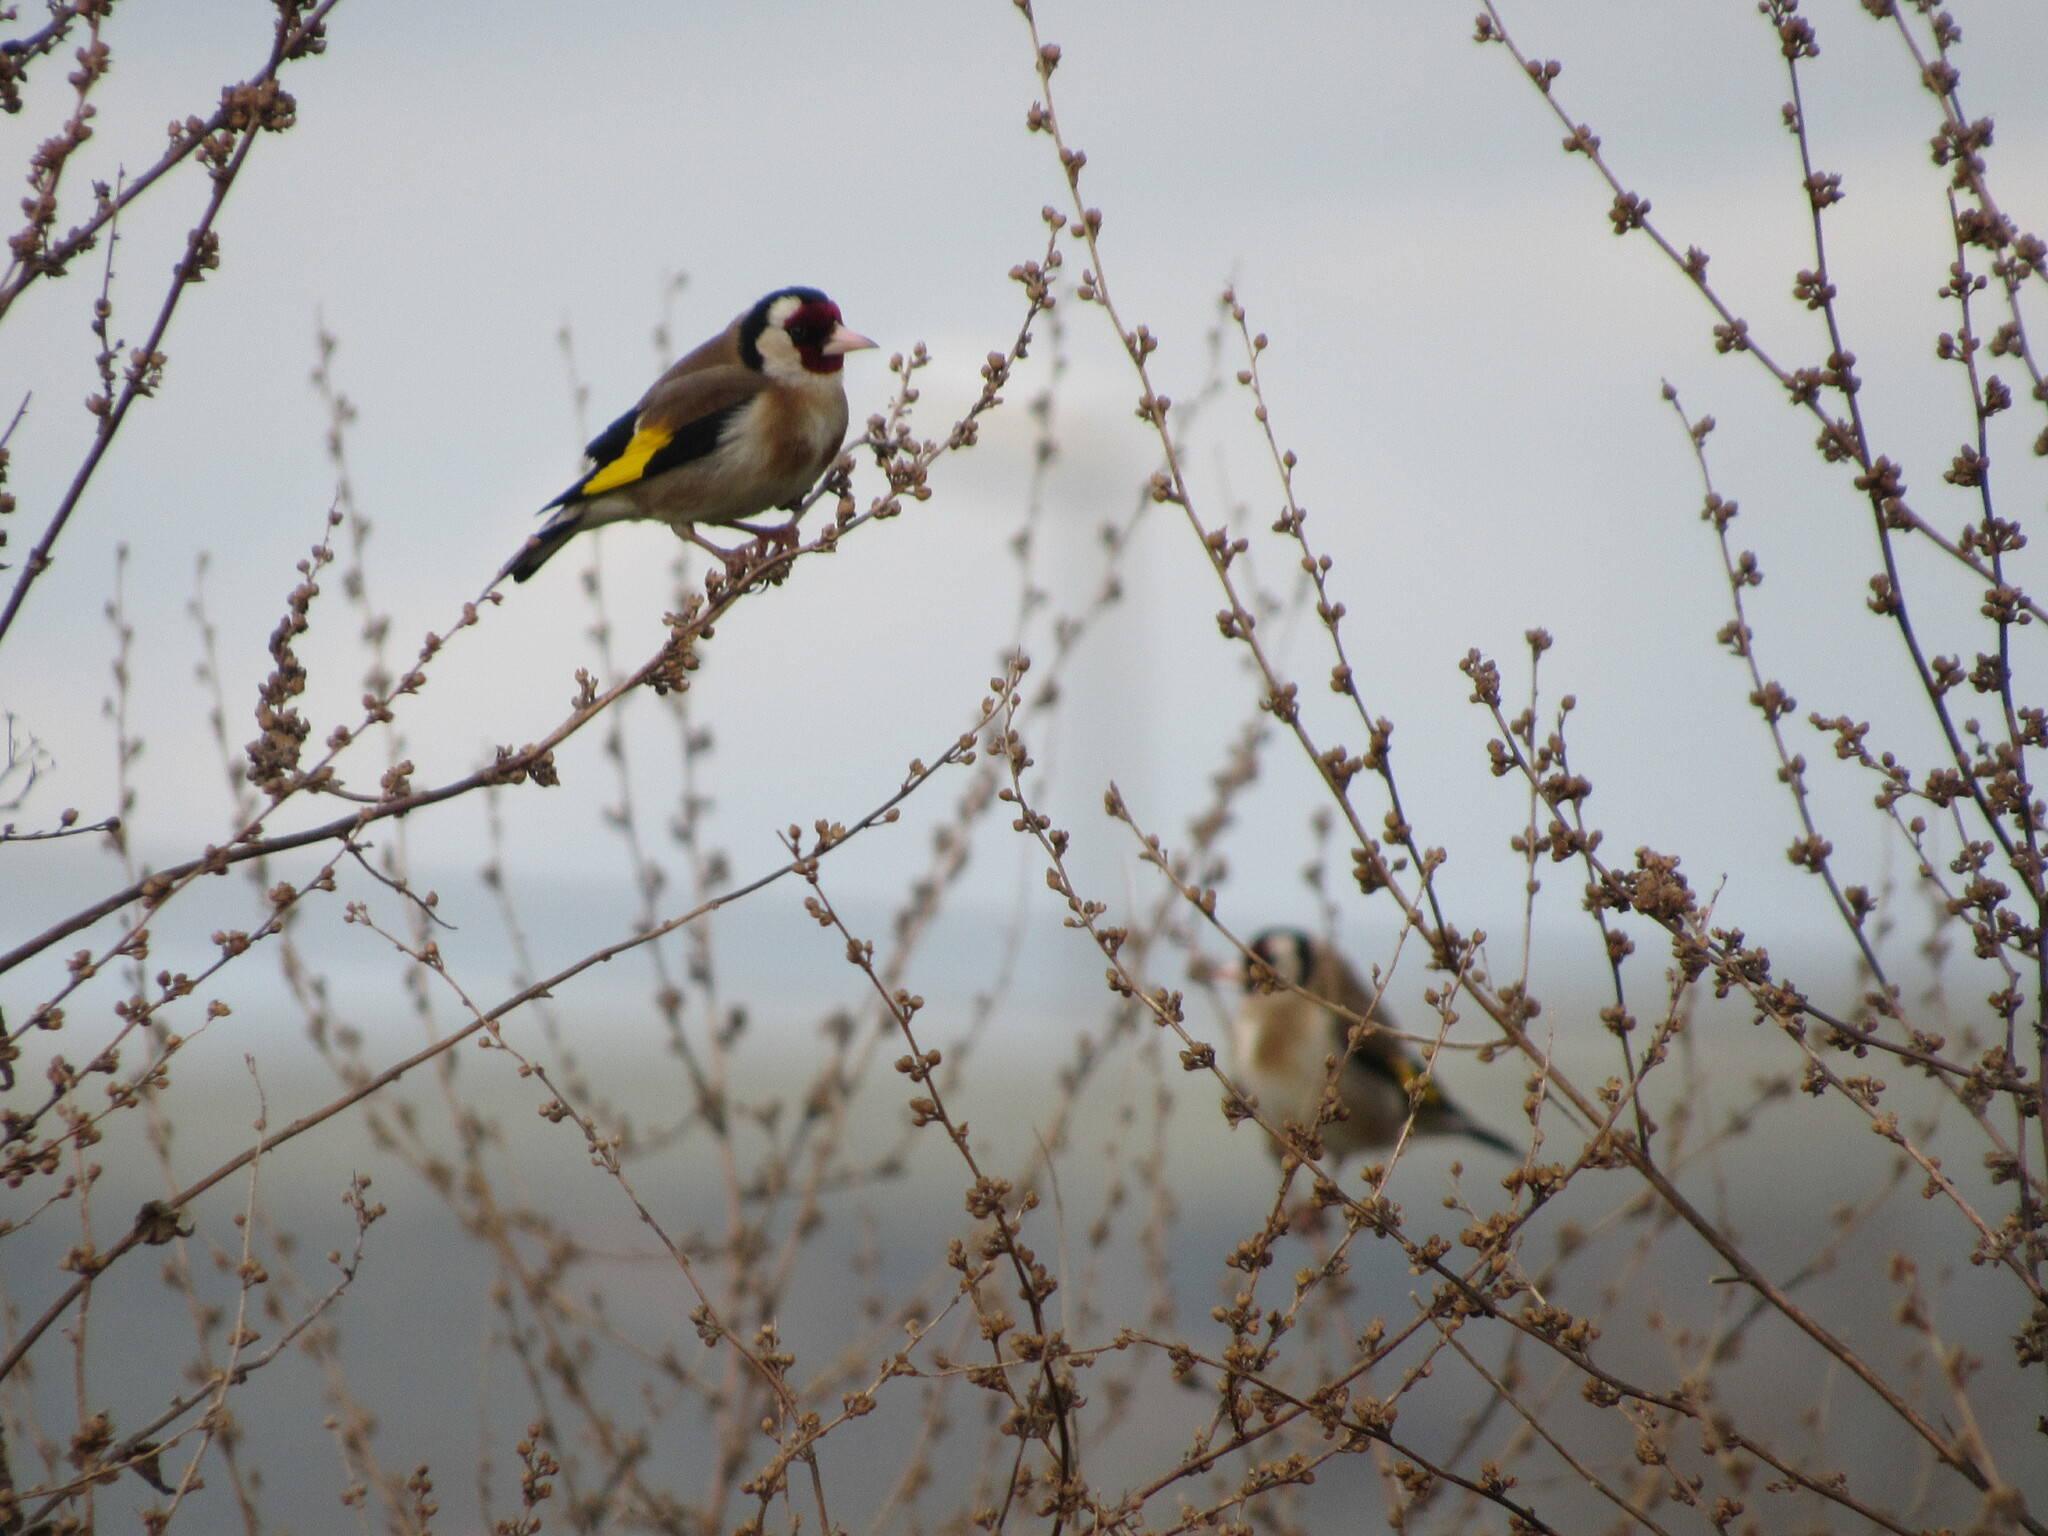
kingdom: Animalia
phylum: Chordata
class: Aves
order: Passeriformes
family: Fringillidae
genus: Carduelis
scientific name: Carduelis carduelis
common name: European goldfinch
